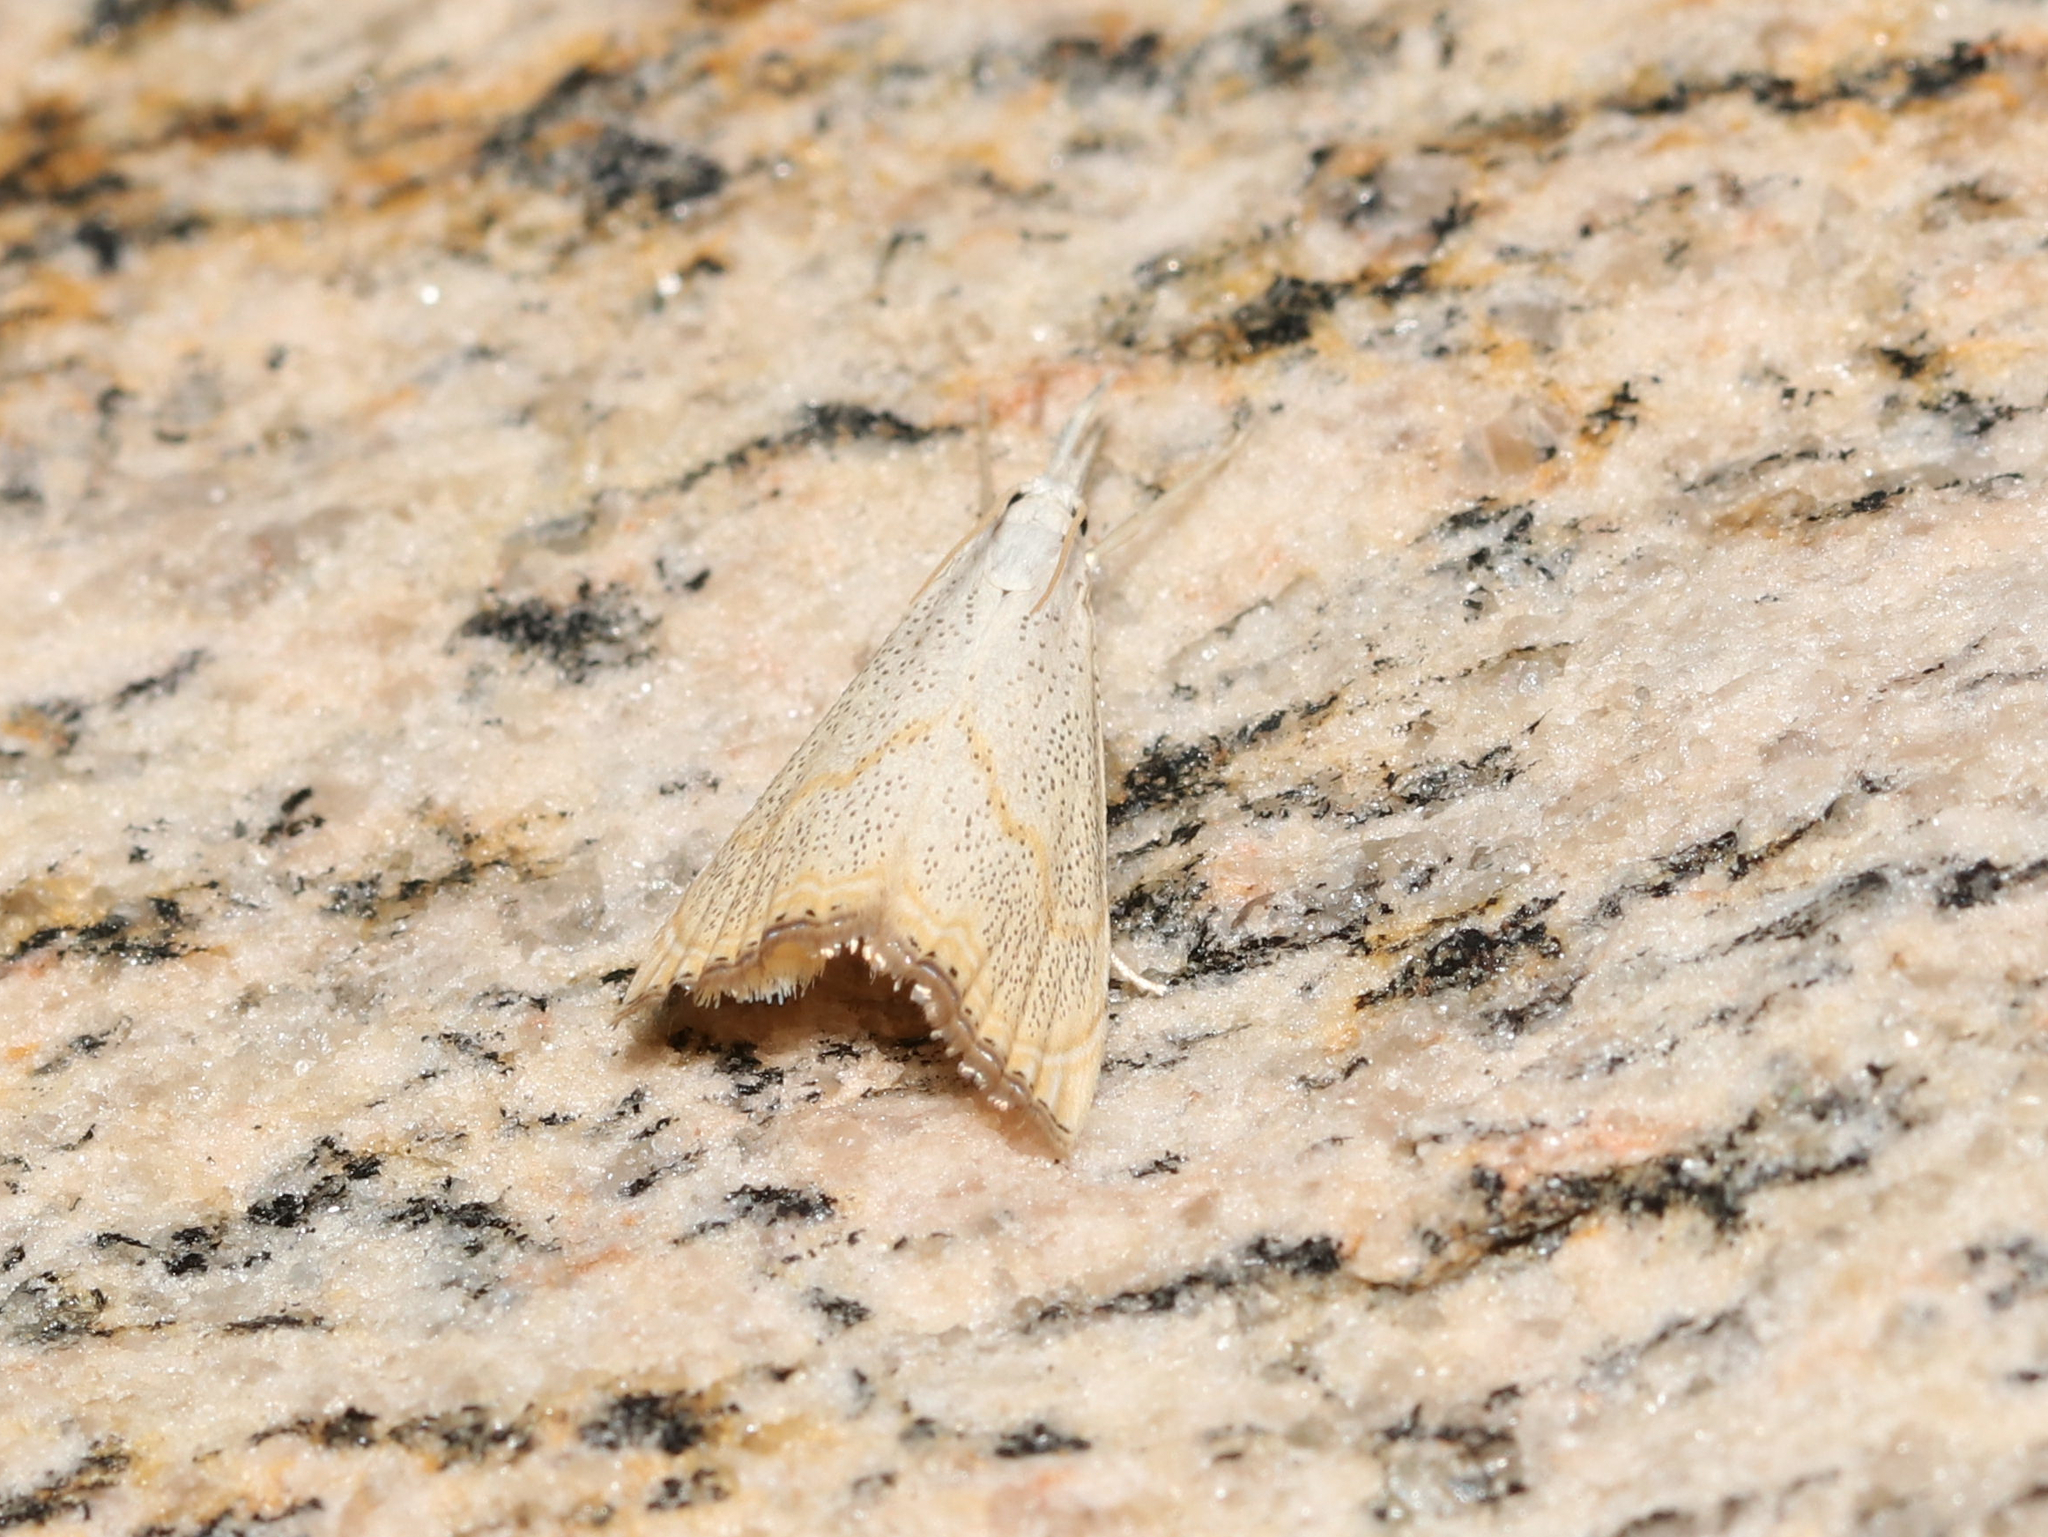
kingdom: Animalia
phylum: Arthropoda
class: Insecta
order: Lepidoptera
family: Crambidae
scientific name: Crambidae
